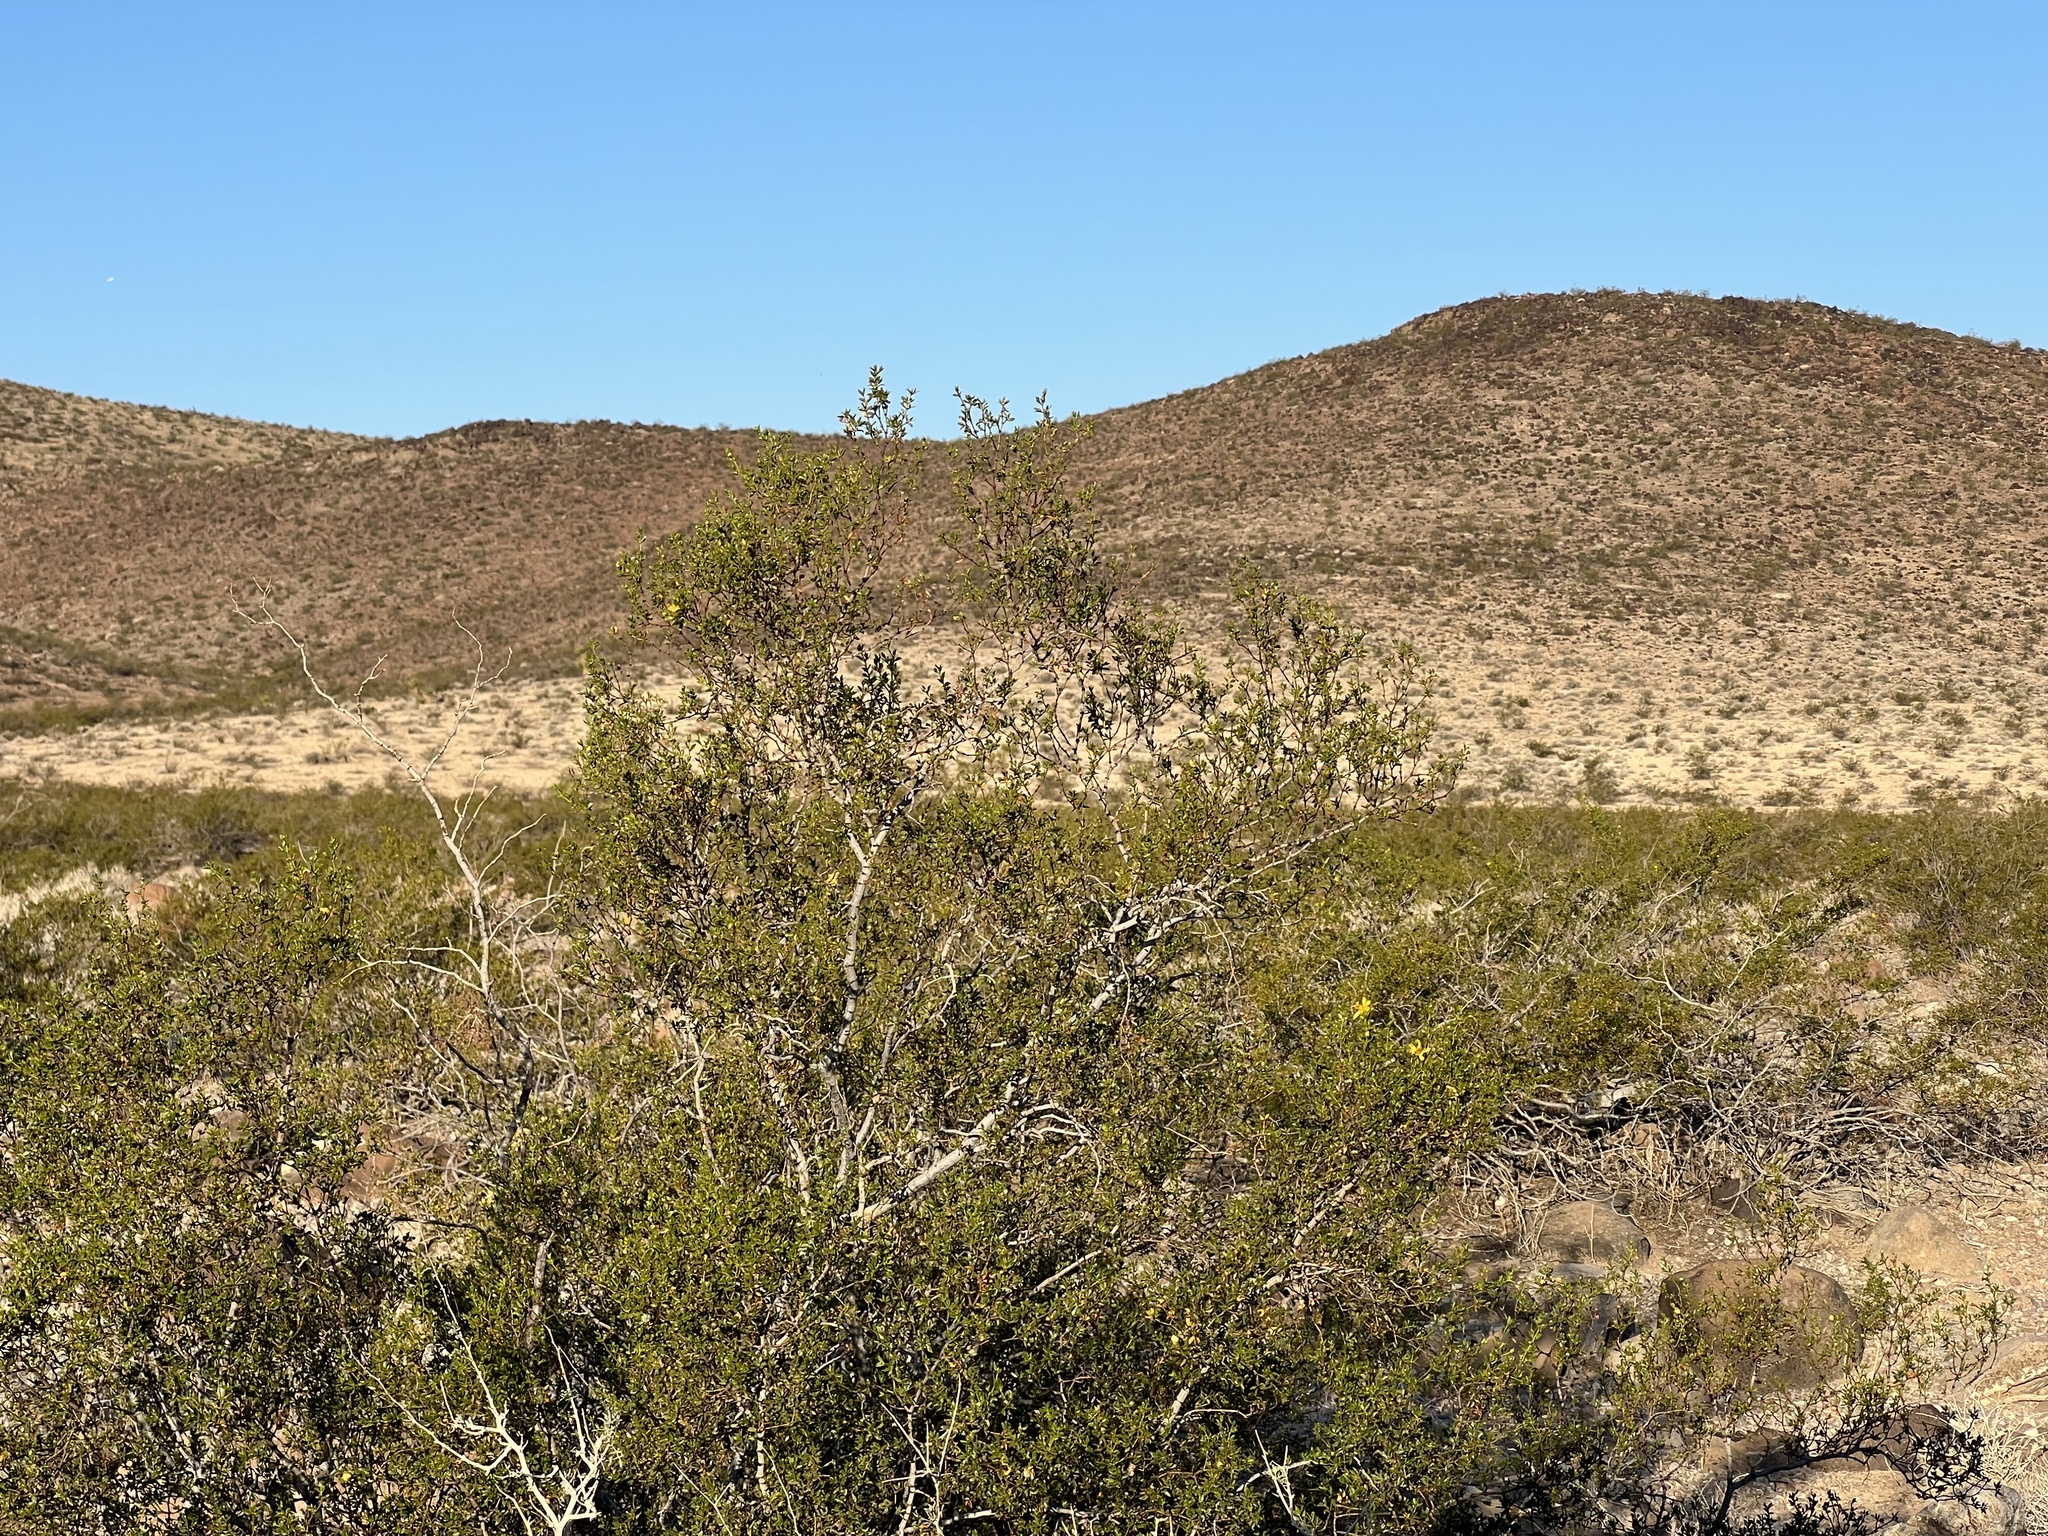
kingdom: Plantae
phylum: Tracheophyta
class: Magnoliopsida
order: Zygophyllales
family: Zygophyllaceae
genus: Larrea
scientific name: Larrea tridentata
